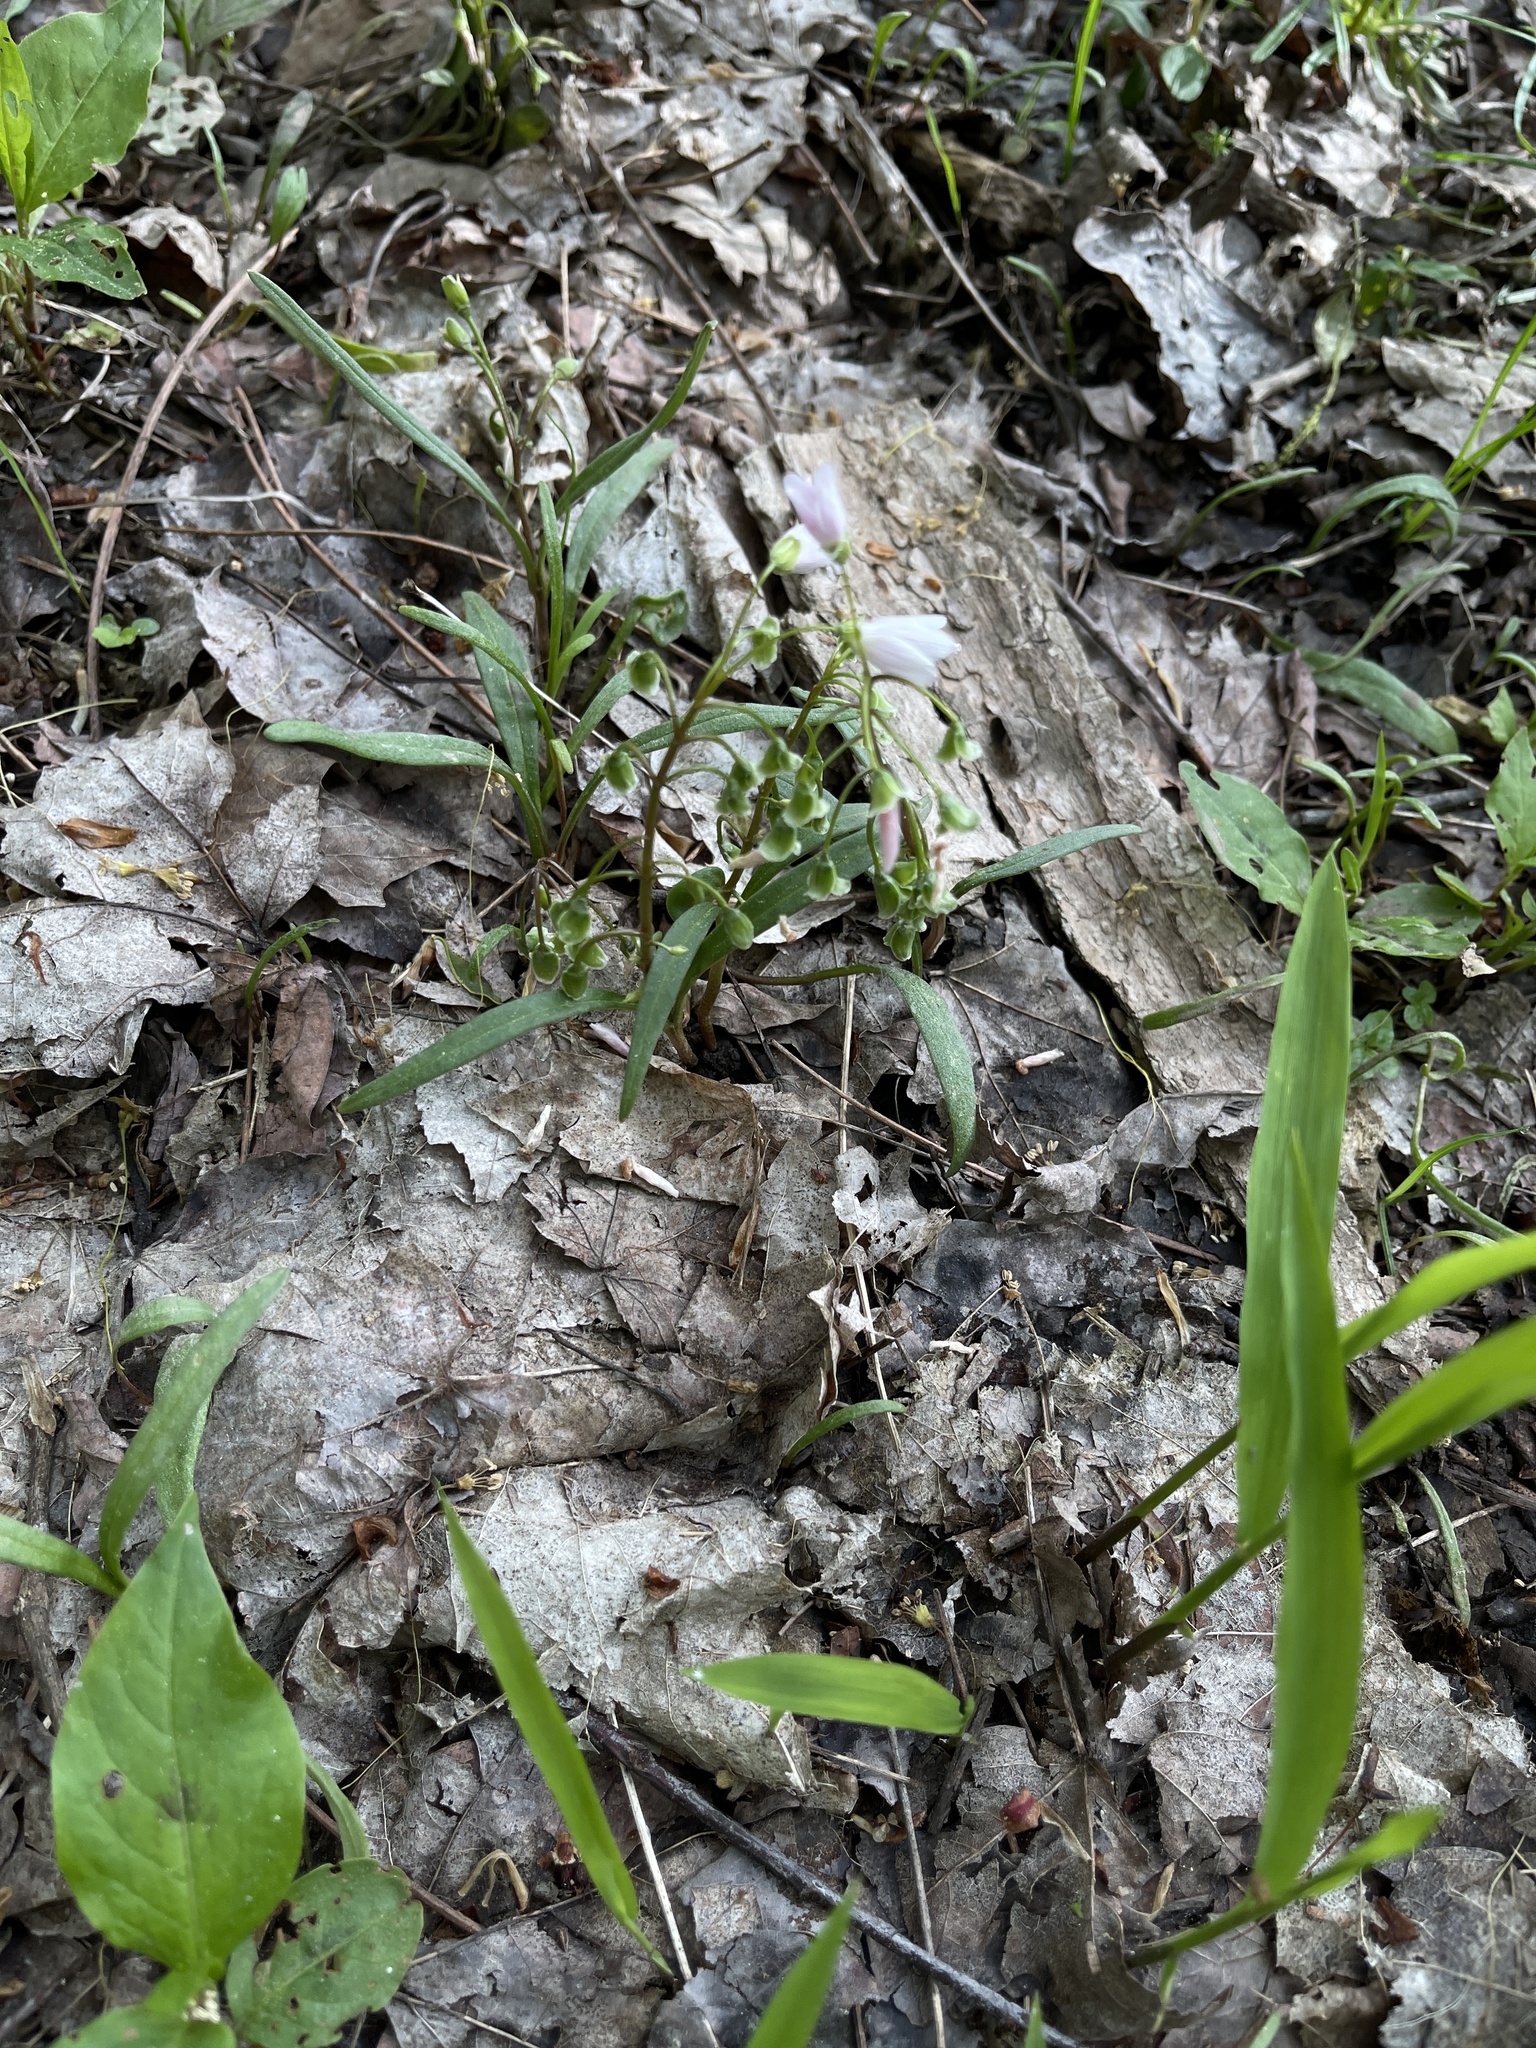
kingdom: Plantae
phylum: Tracheophyta
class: Magnoliopsida
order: Caryophyllales
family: Montiaceae
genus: Claytonia
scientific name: Claytonia virginica
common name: Virginia springbeauty
